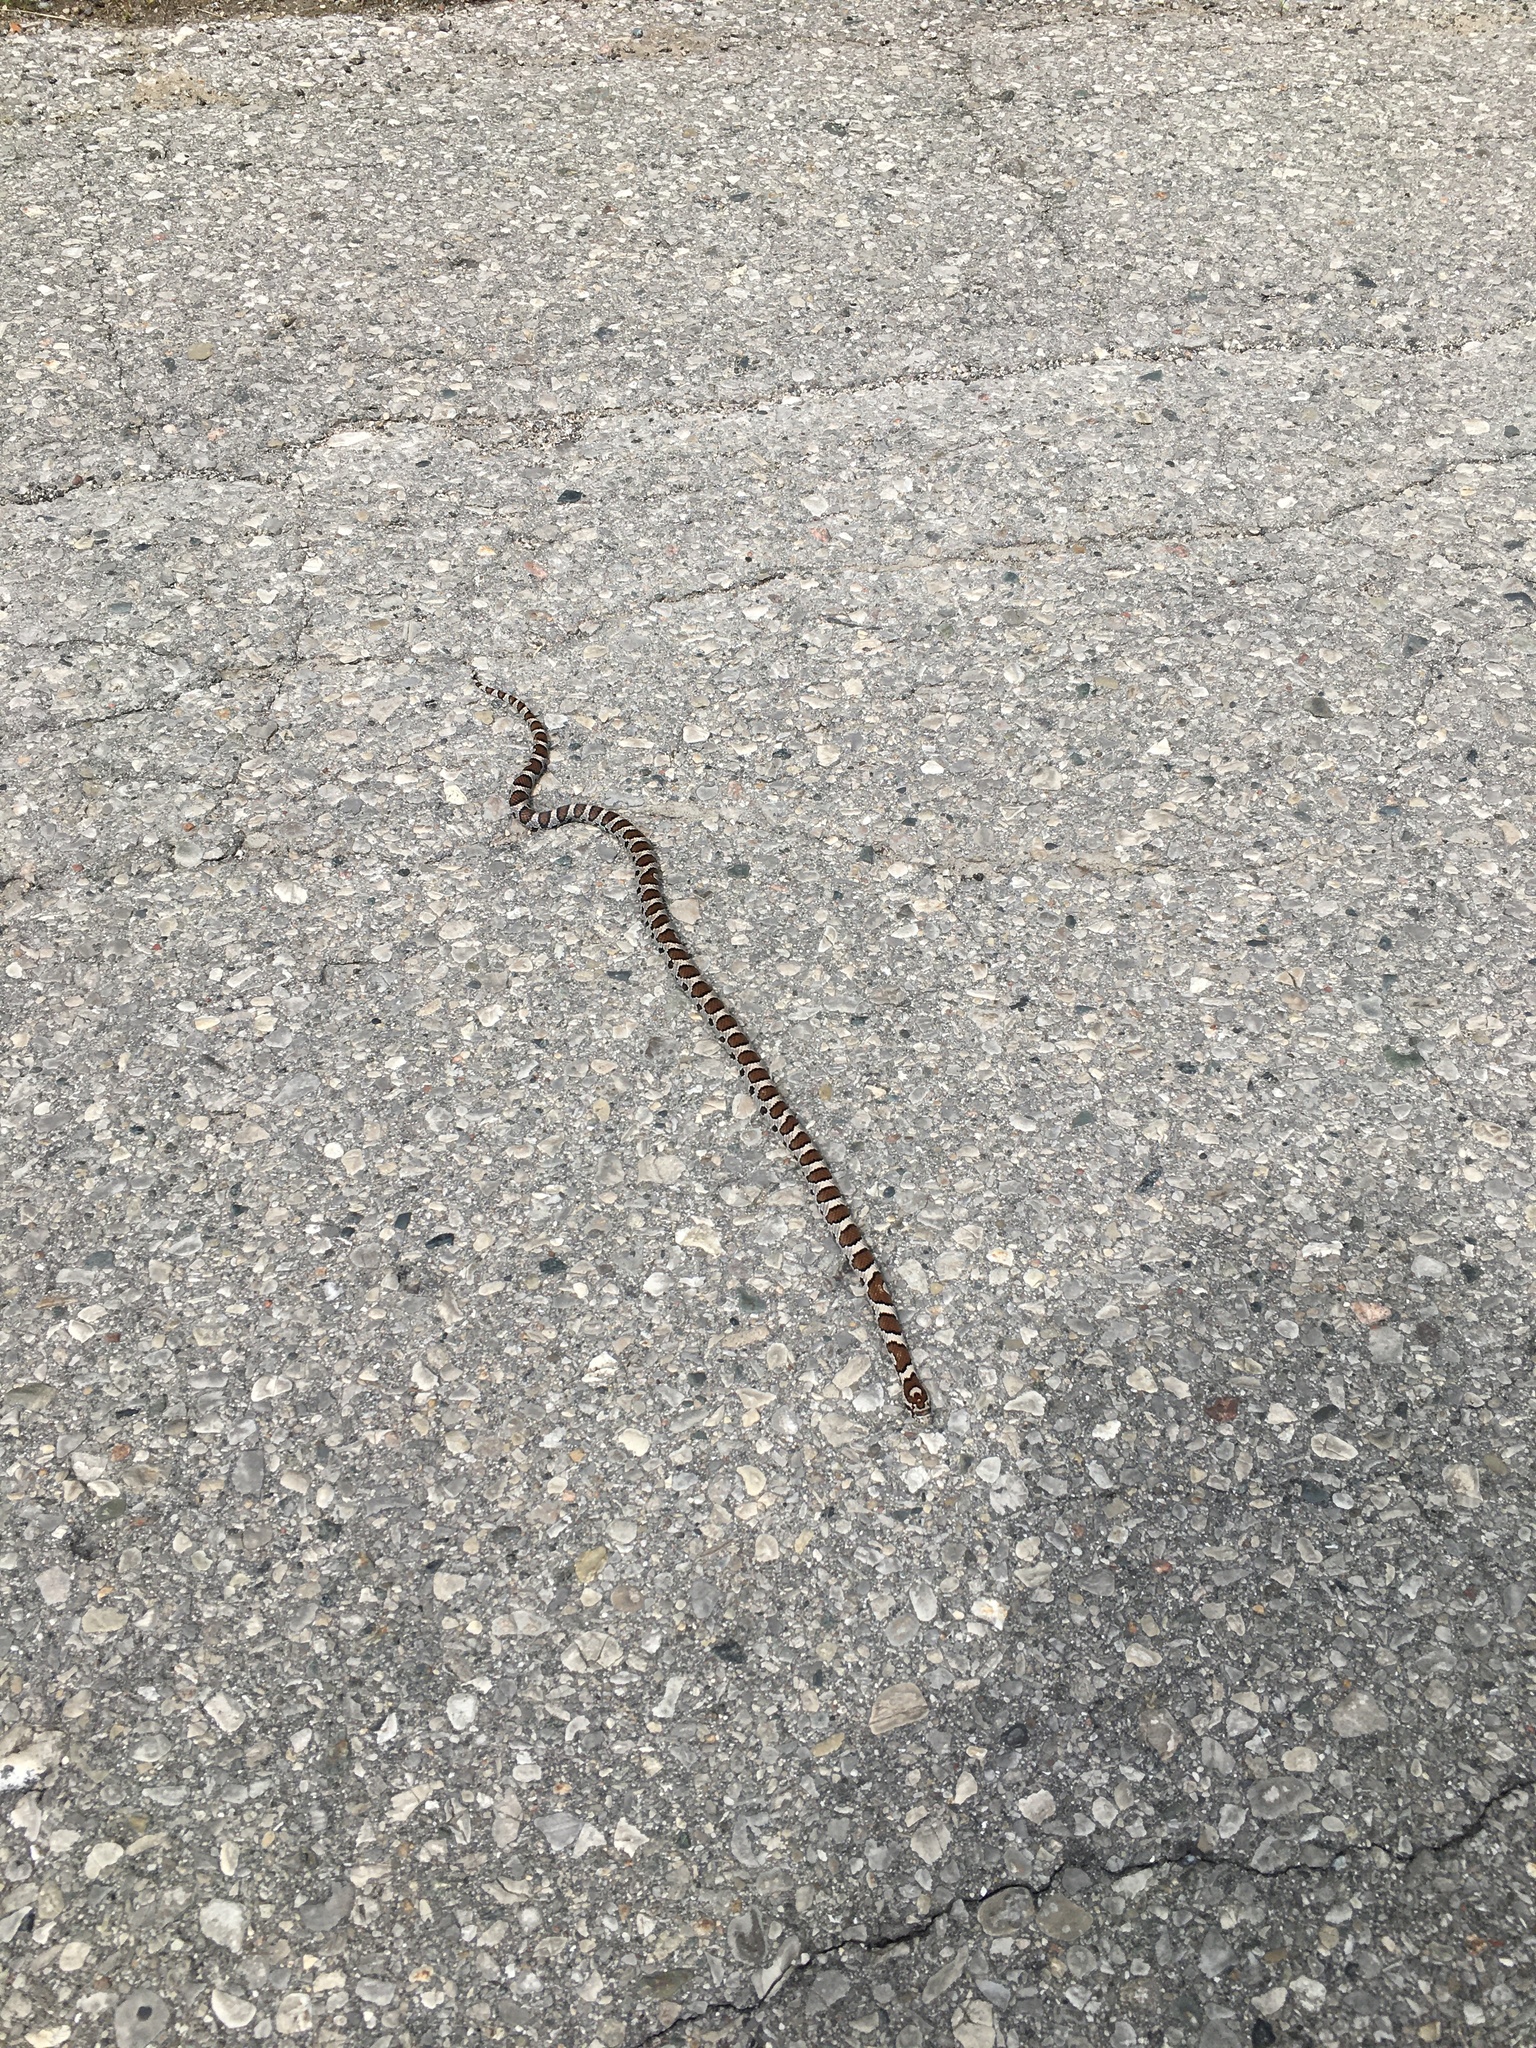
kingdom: Animalia
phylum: Chordata
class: Squamata
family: Colubridae
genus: Lampropeltis
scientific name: Lampropeltis triangulum
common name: Eastern milksnake
